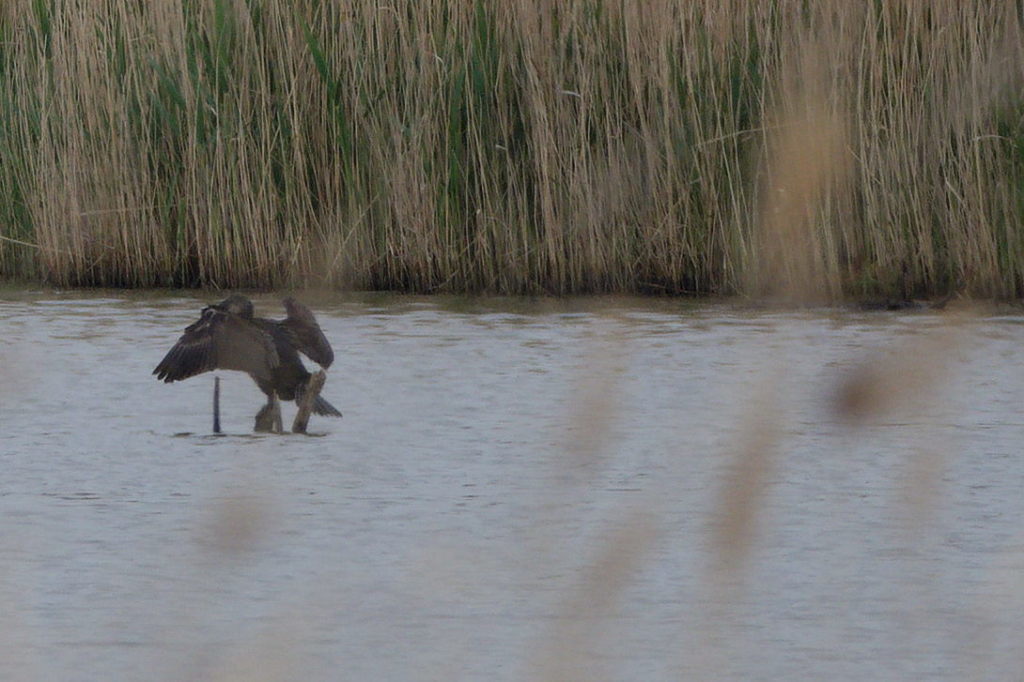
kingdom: Animalia
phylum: Chordata
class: Aves
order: Suliformes
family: Phalacrocoracidae
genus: Phalacrocorax
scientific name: Phalacrocorax carbo
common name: Great cormorant
